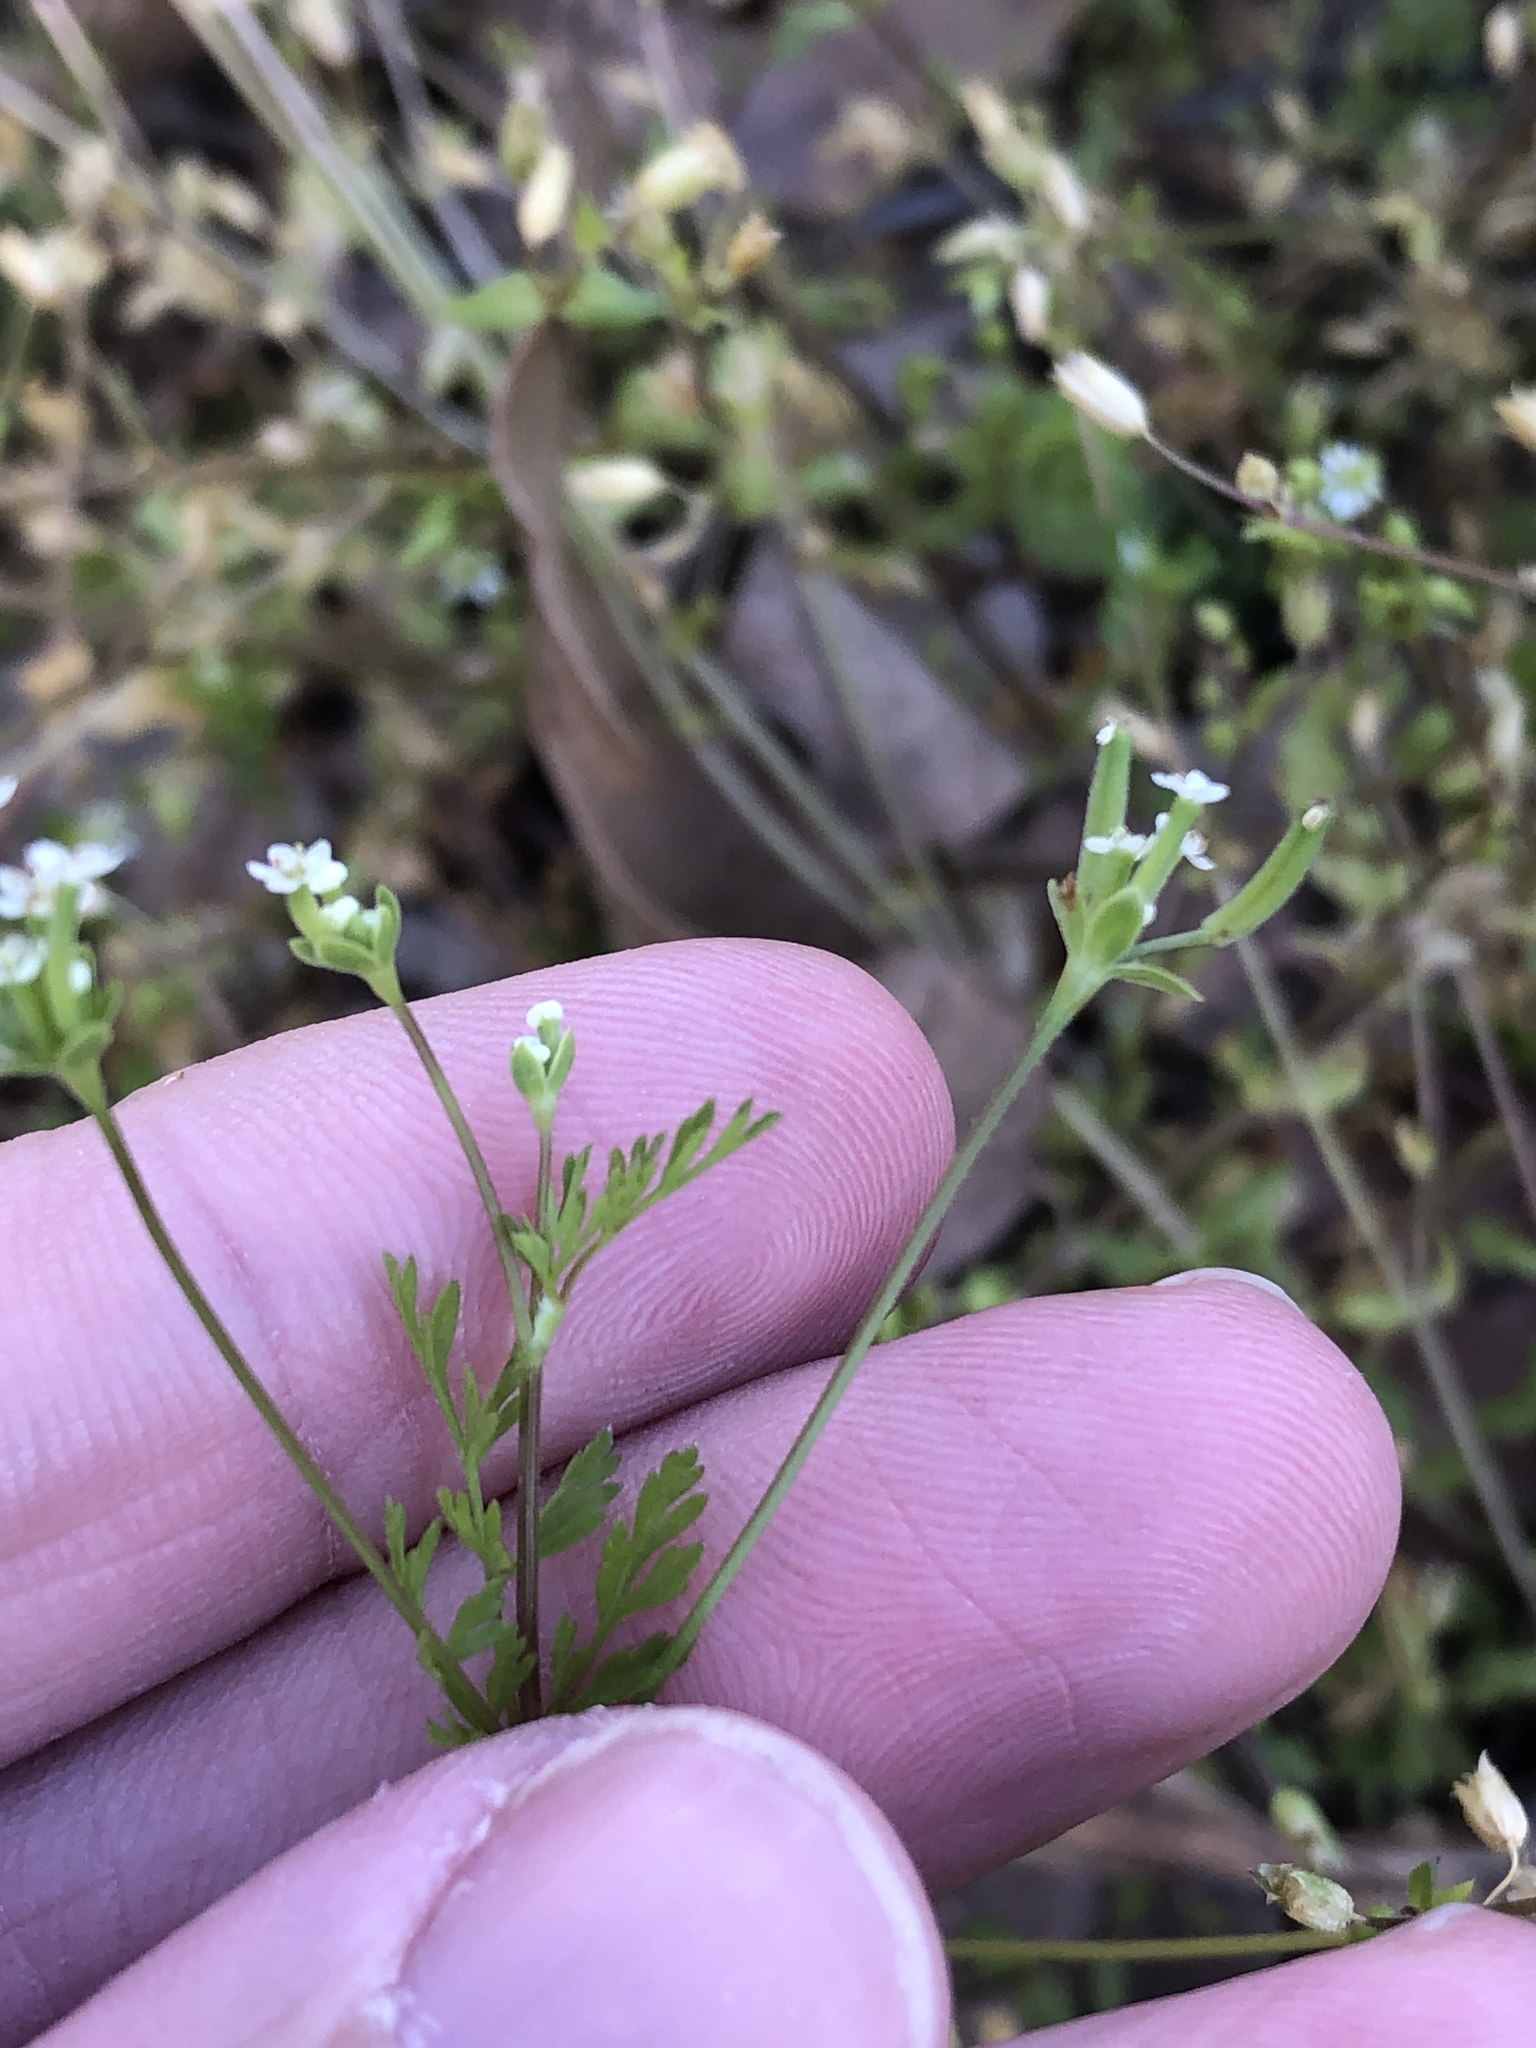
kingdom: Plantae
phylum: Tracheophyta
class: Magnoliopsida
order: Apiales
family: Apiaceae
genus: Chaerophyllum
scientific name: Chaerophyllum tainturieri
